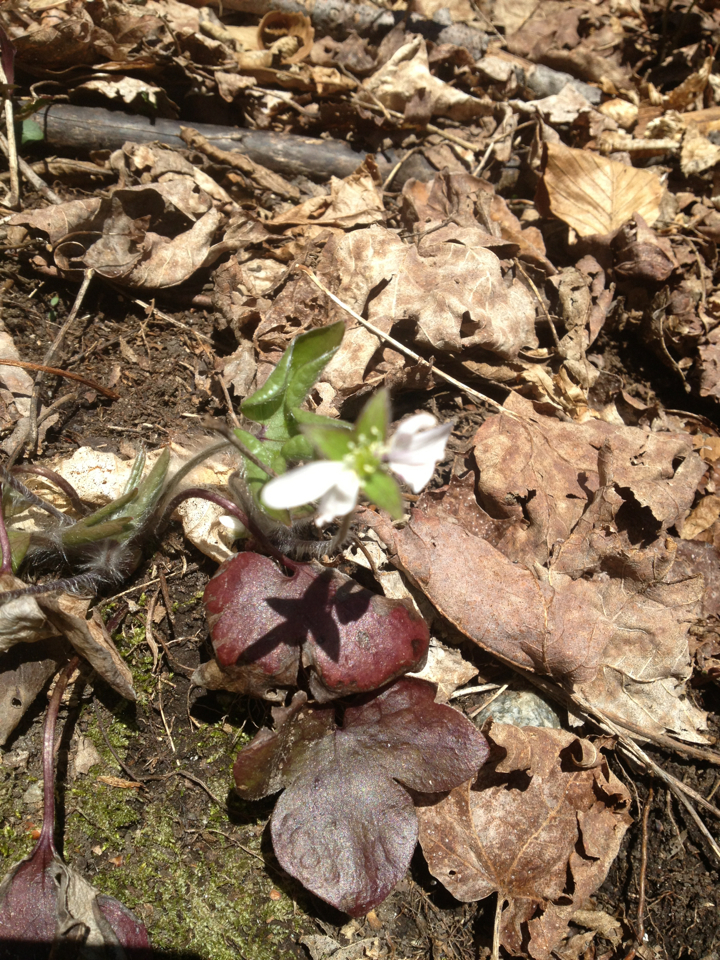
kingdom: Plantae
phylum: Tracheophyta
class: Magnoliopsida
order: Ranunculales
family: Ranunculaceae
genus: Hepatica
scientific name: Hepatica americana
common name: American hepatica
